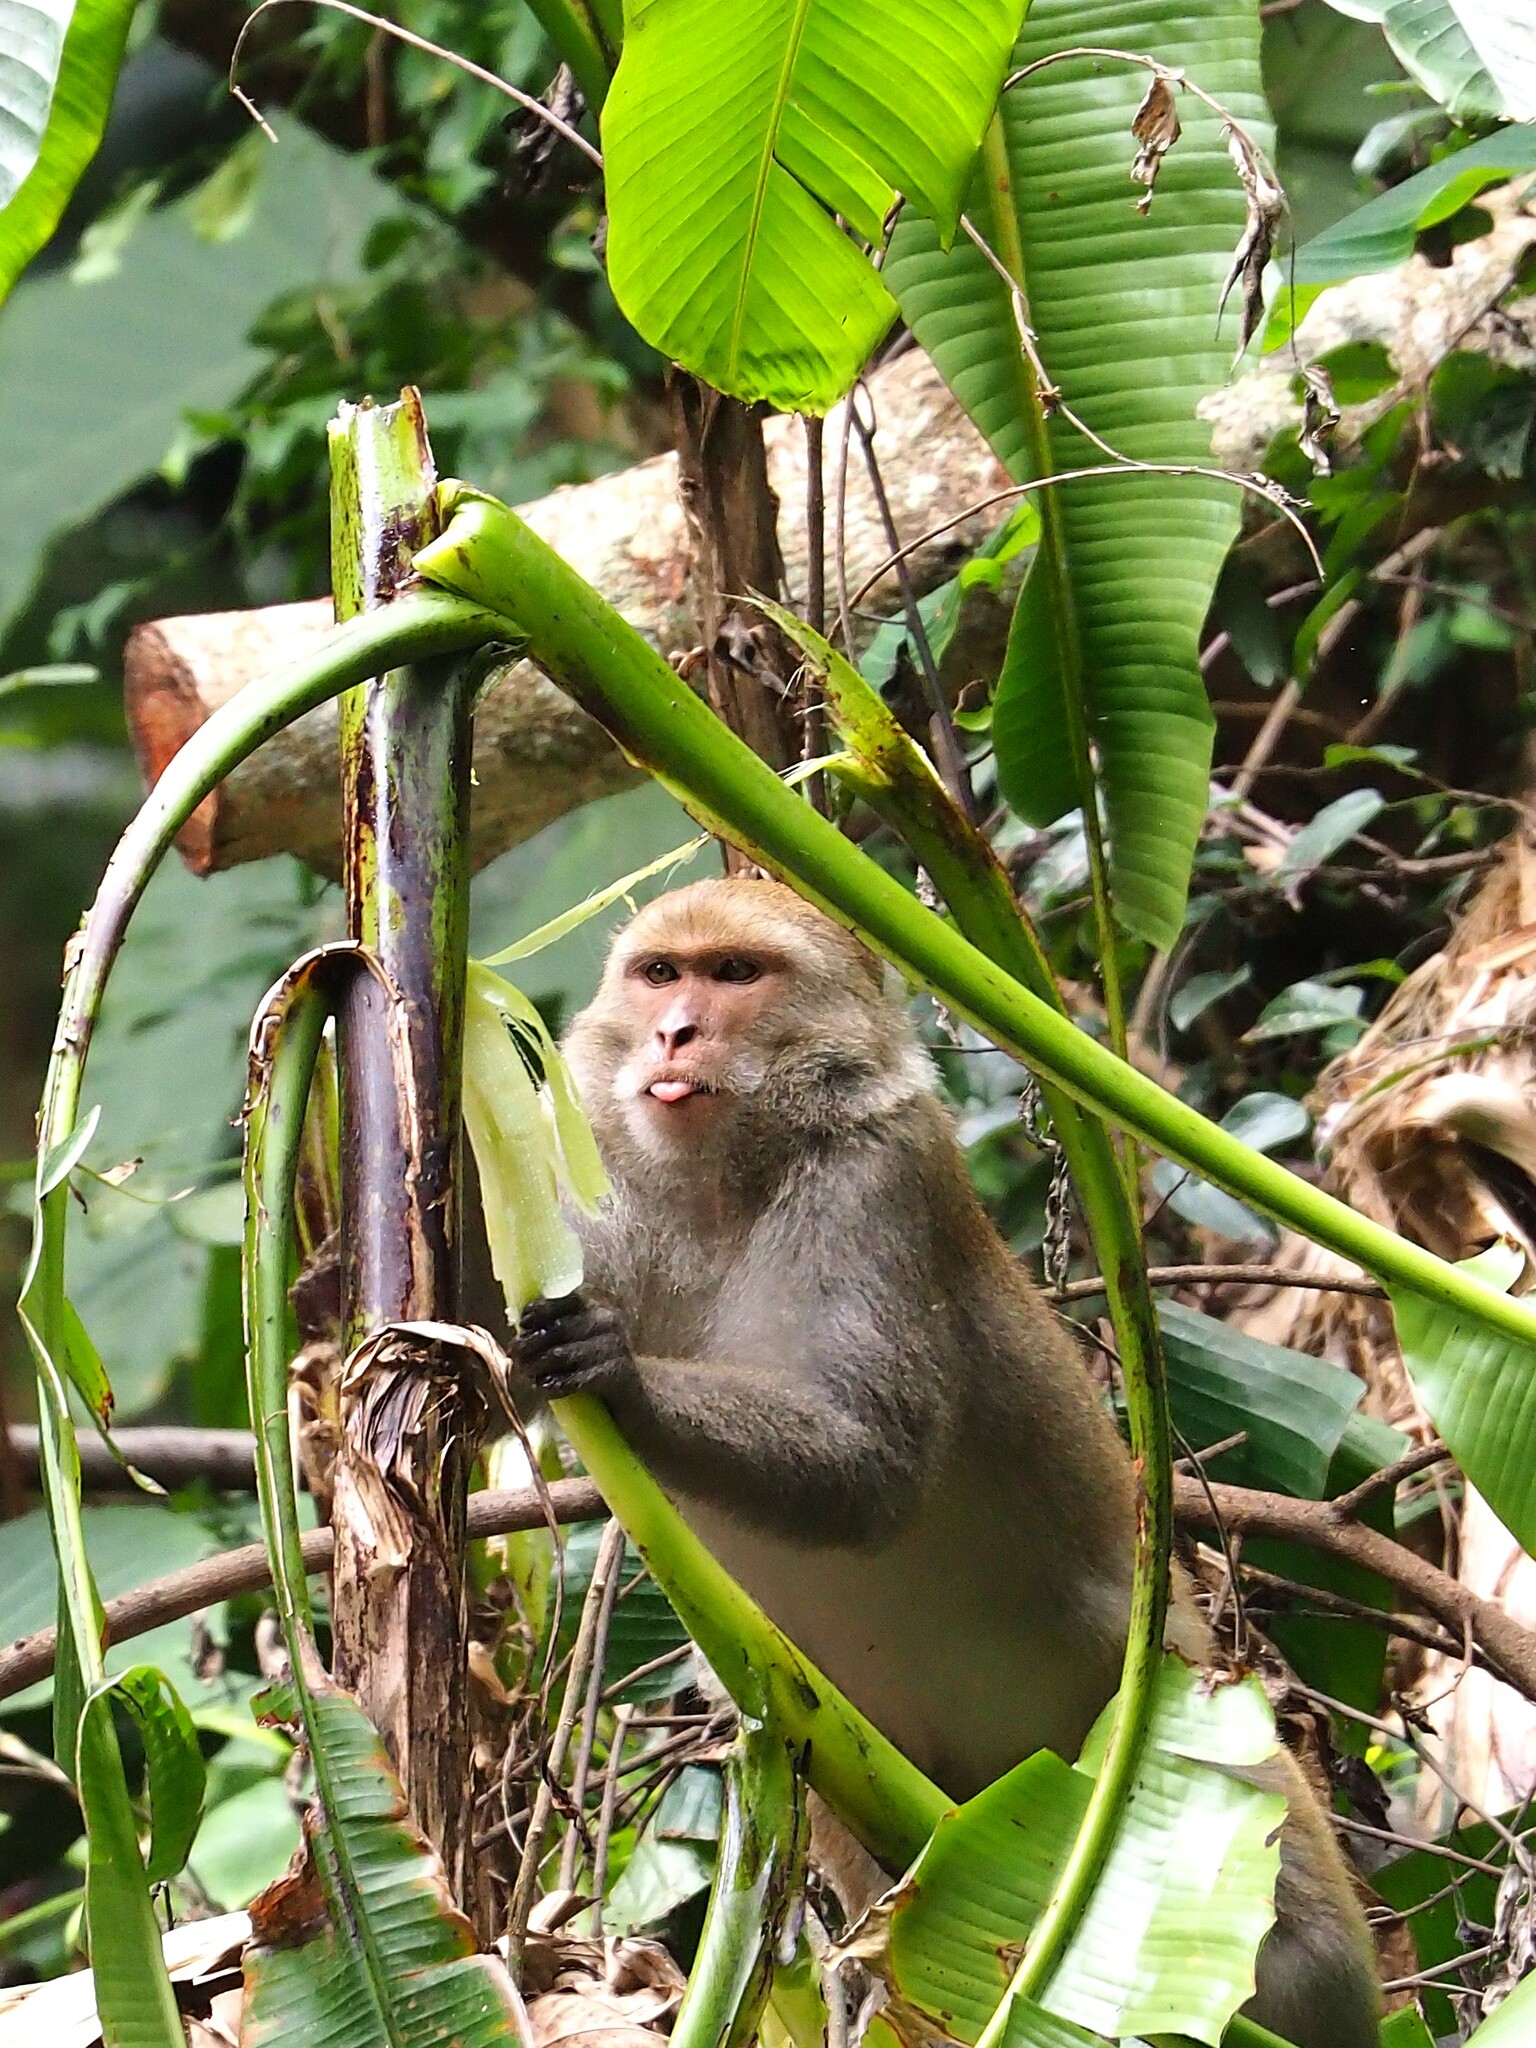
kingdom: Animalia
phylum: Chordata
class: Mammalia
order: Primates
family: Cercopithecidae
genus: Macaca
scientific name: Macaca cyclopis
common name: Formosan rock macaque
